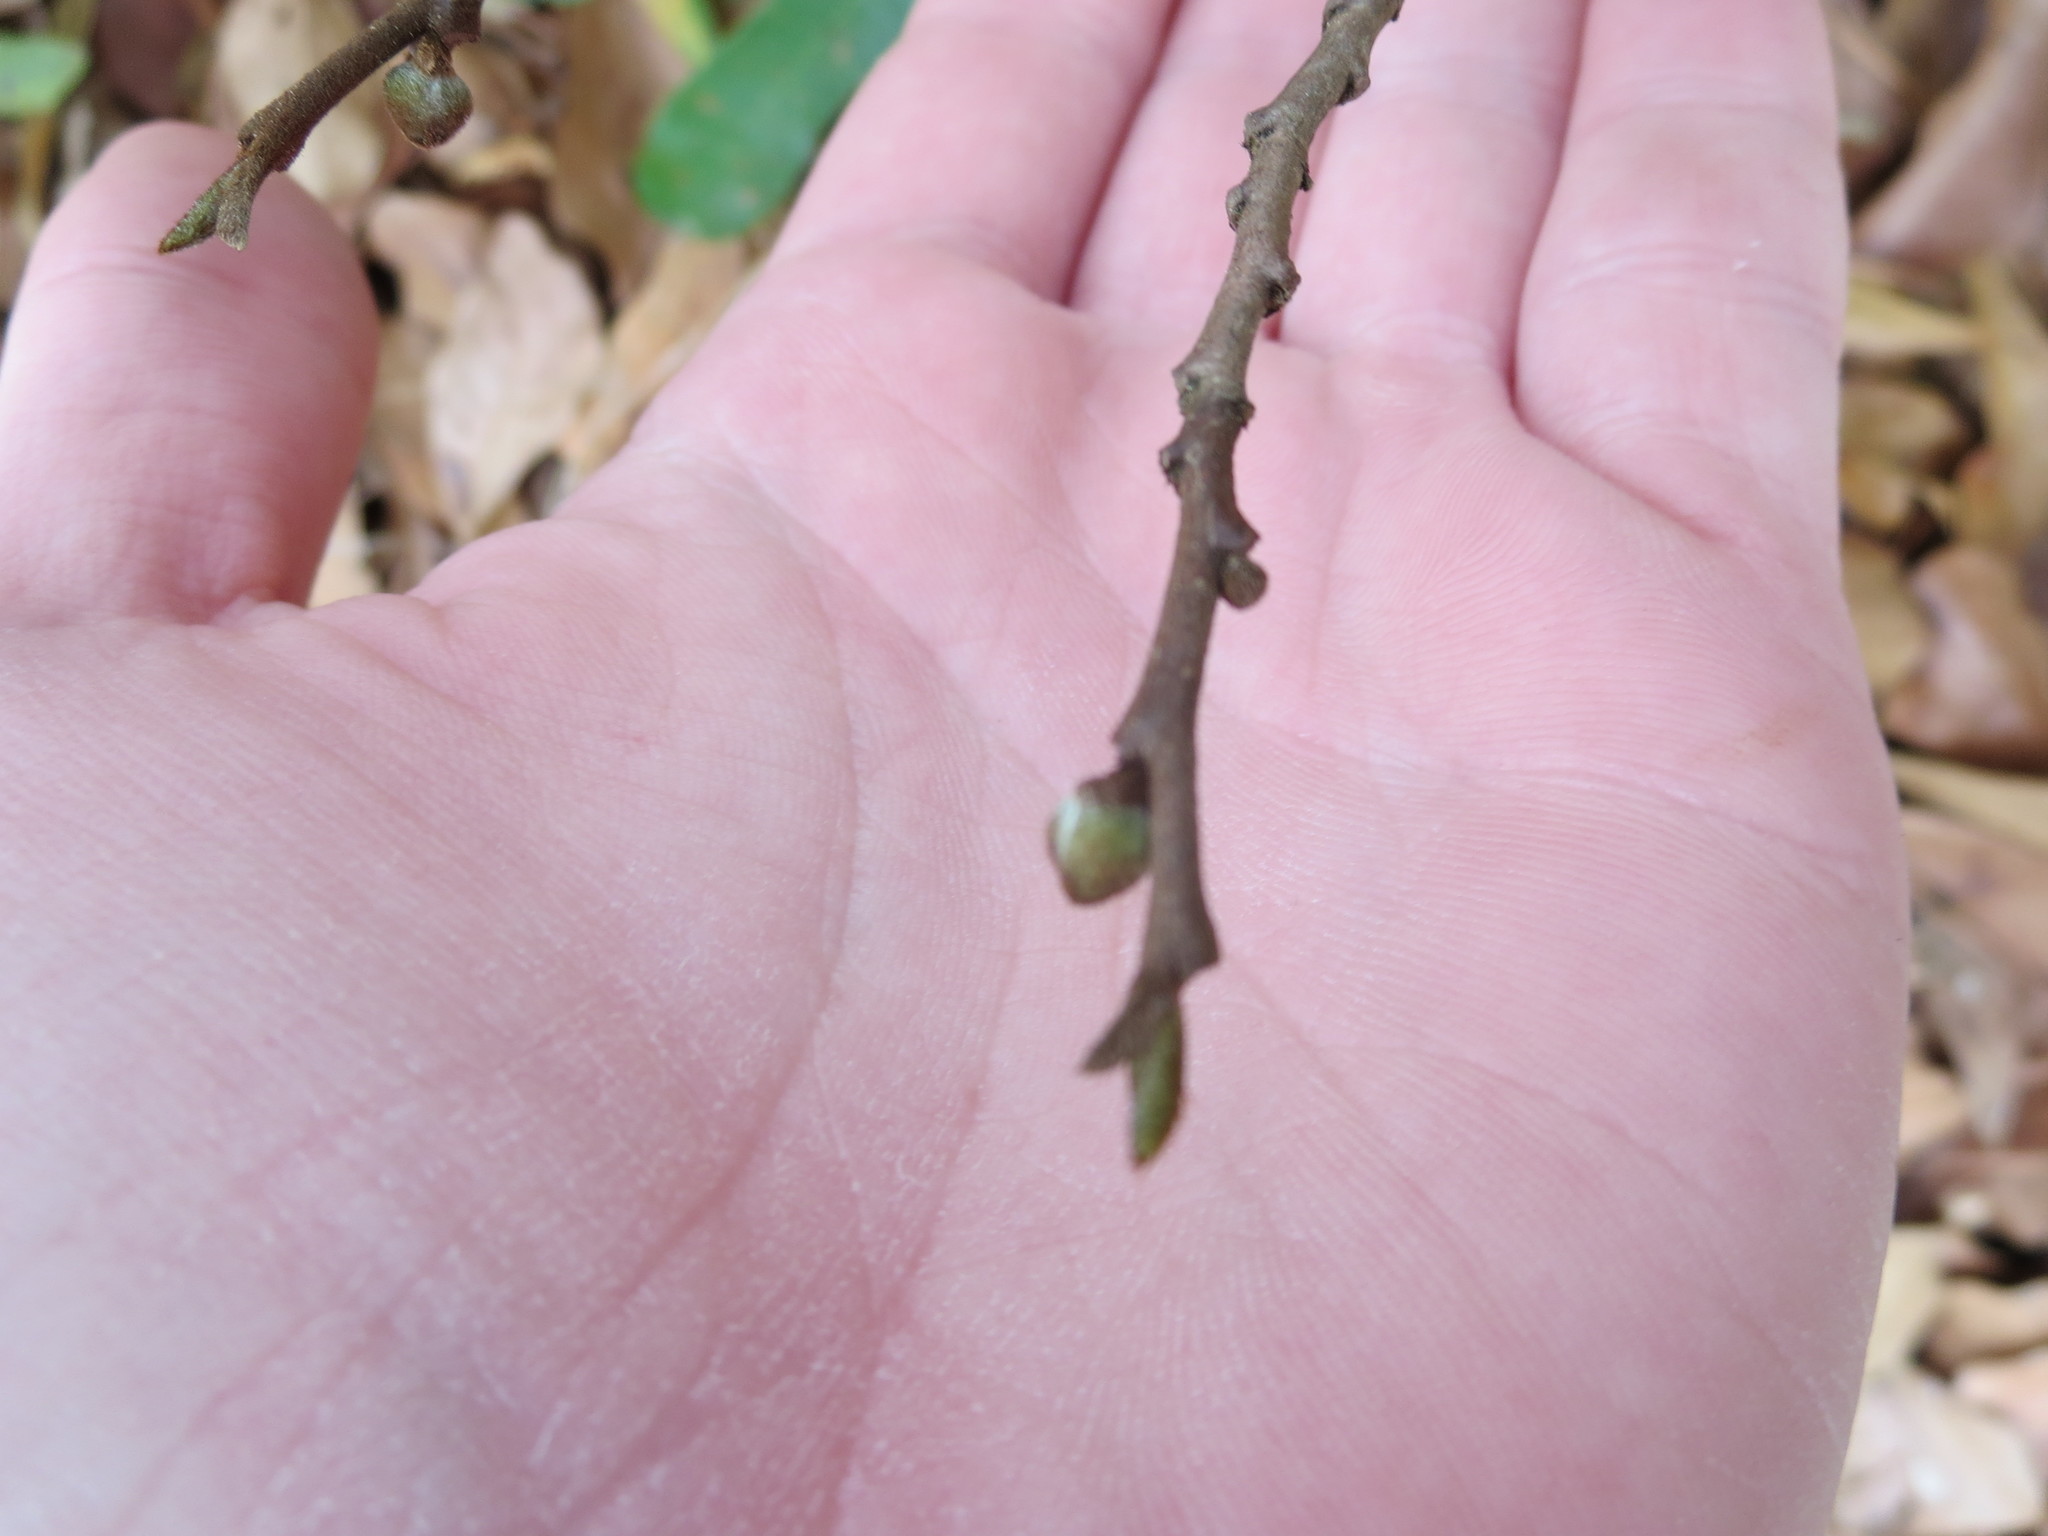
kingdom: Plantae
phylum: Tracheophyta
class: Magnoliopsida
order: Magnoliales
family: Annonaceae
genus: Asimina
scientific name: Asimina parviflora
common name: Dwarf pawpaw
